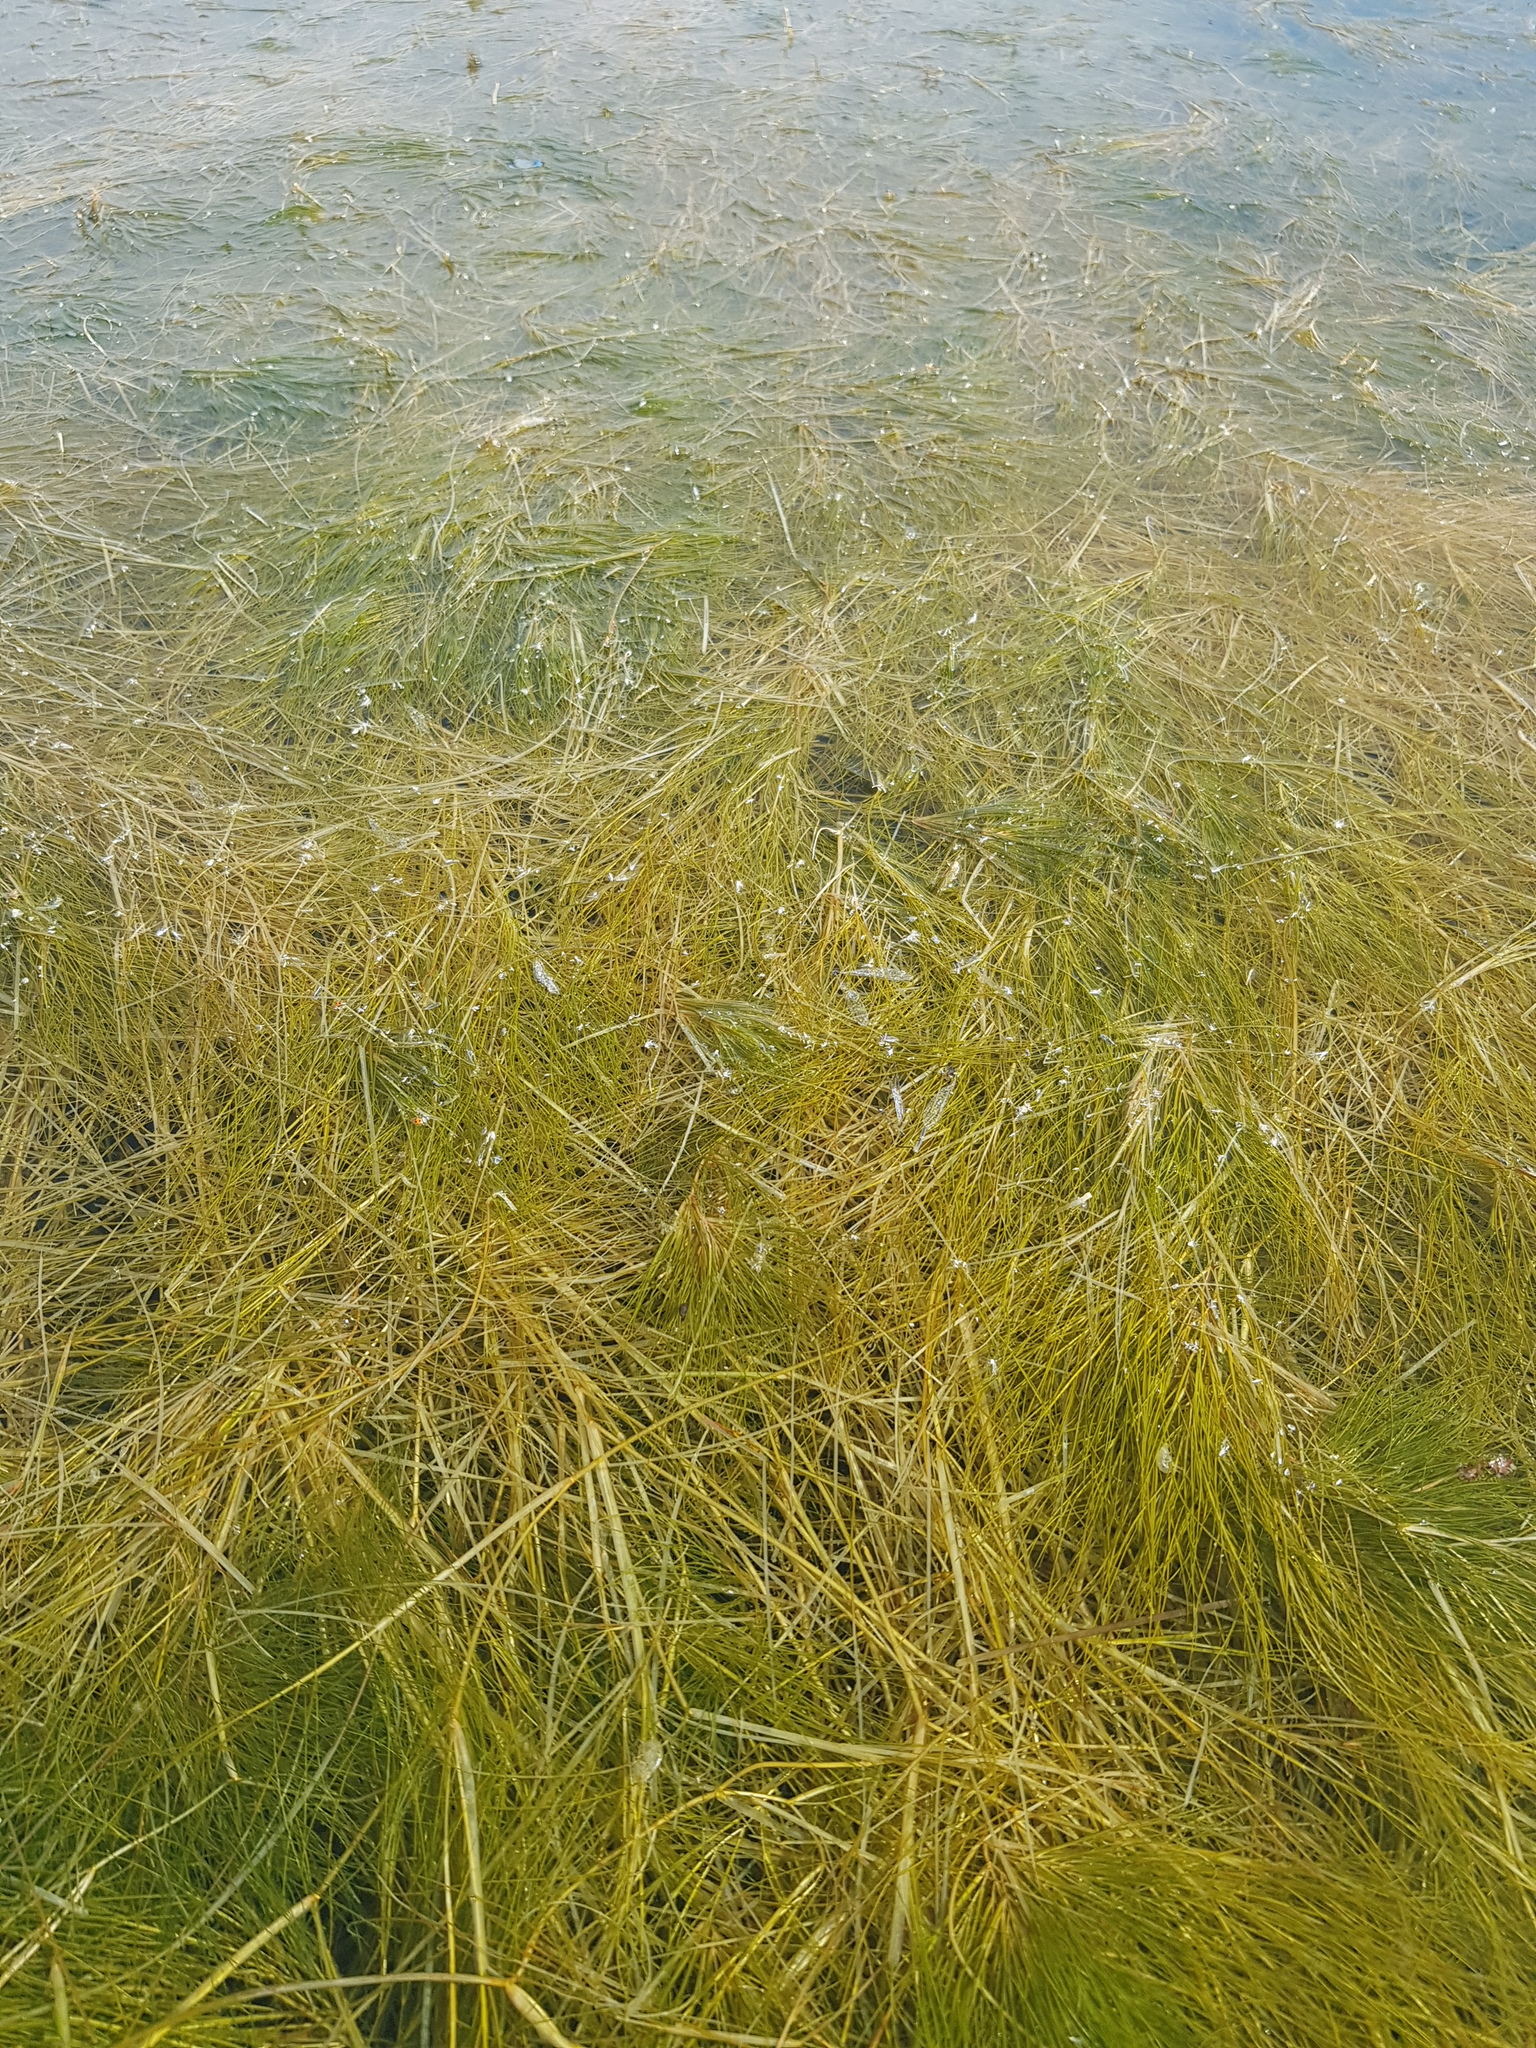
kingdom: Plantae
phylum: Tracheophyta
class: Liliopsida
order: Alismatales
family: Potamogetonaceae
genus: Stuckenia
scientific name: Stuckenia filiformis
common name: Alpine thread-leaved pondweed
